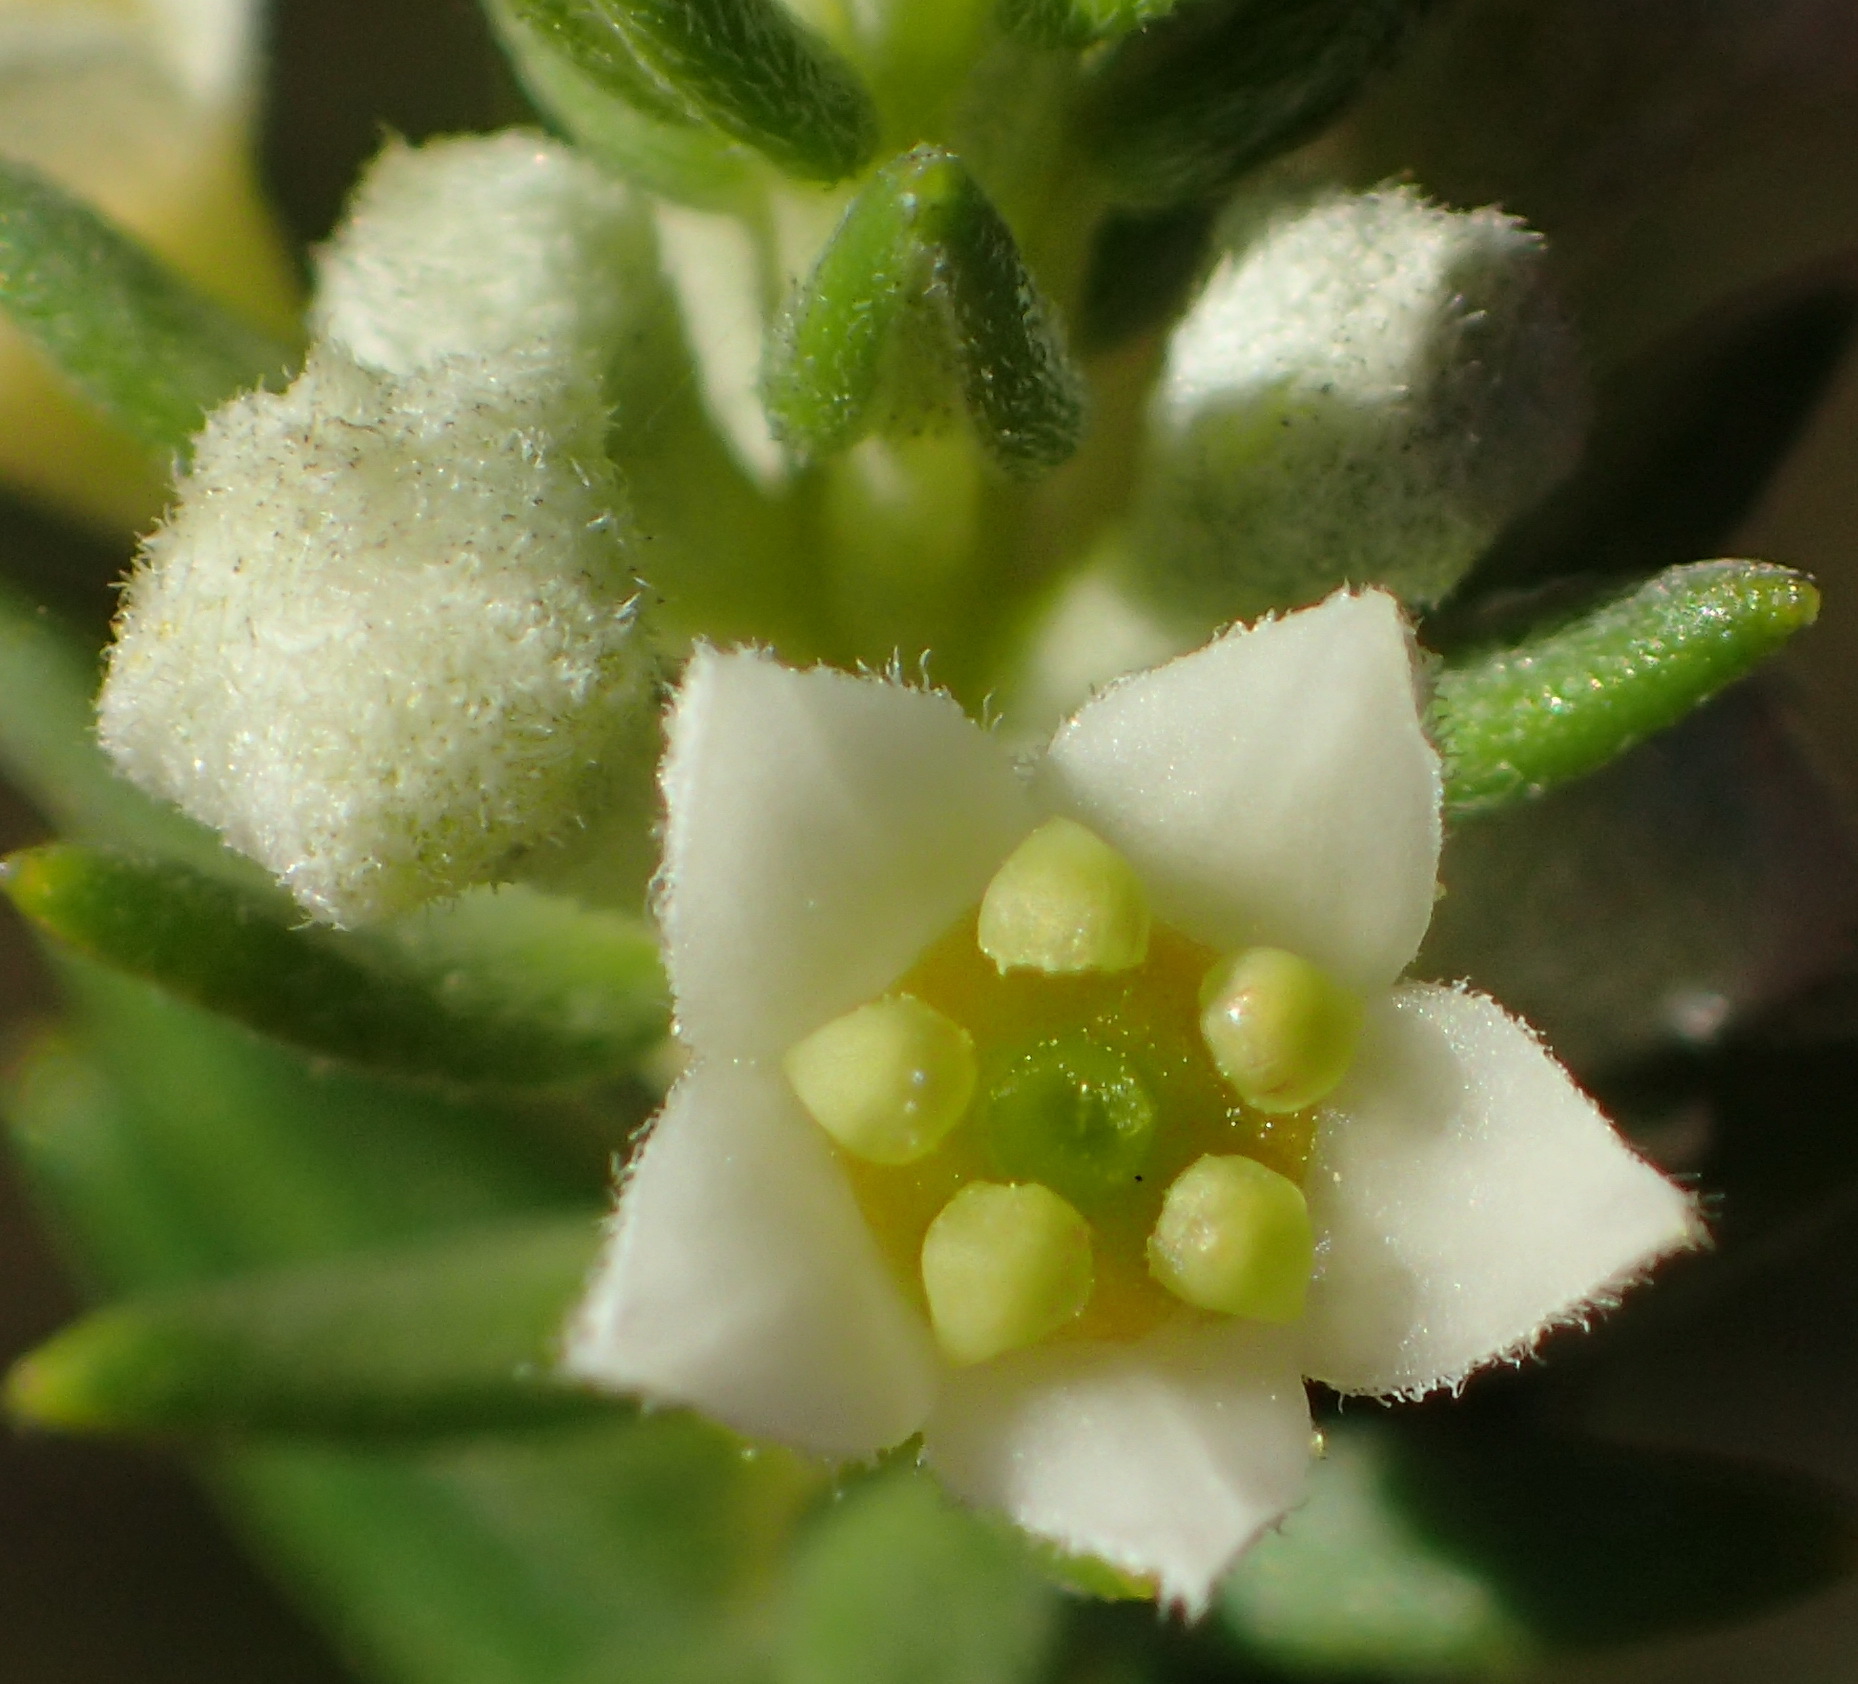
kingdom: Plantae
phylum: Tracheophyta
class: Magnoliopsida
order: Rosales
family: Rhamnaceae
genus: Phylica
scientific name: Phylica axillaris
